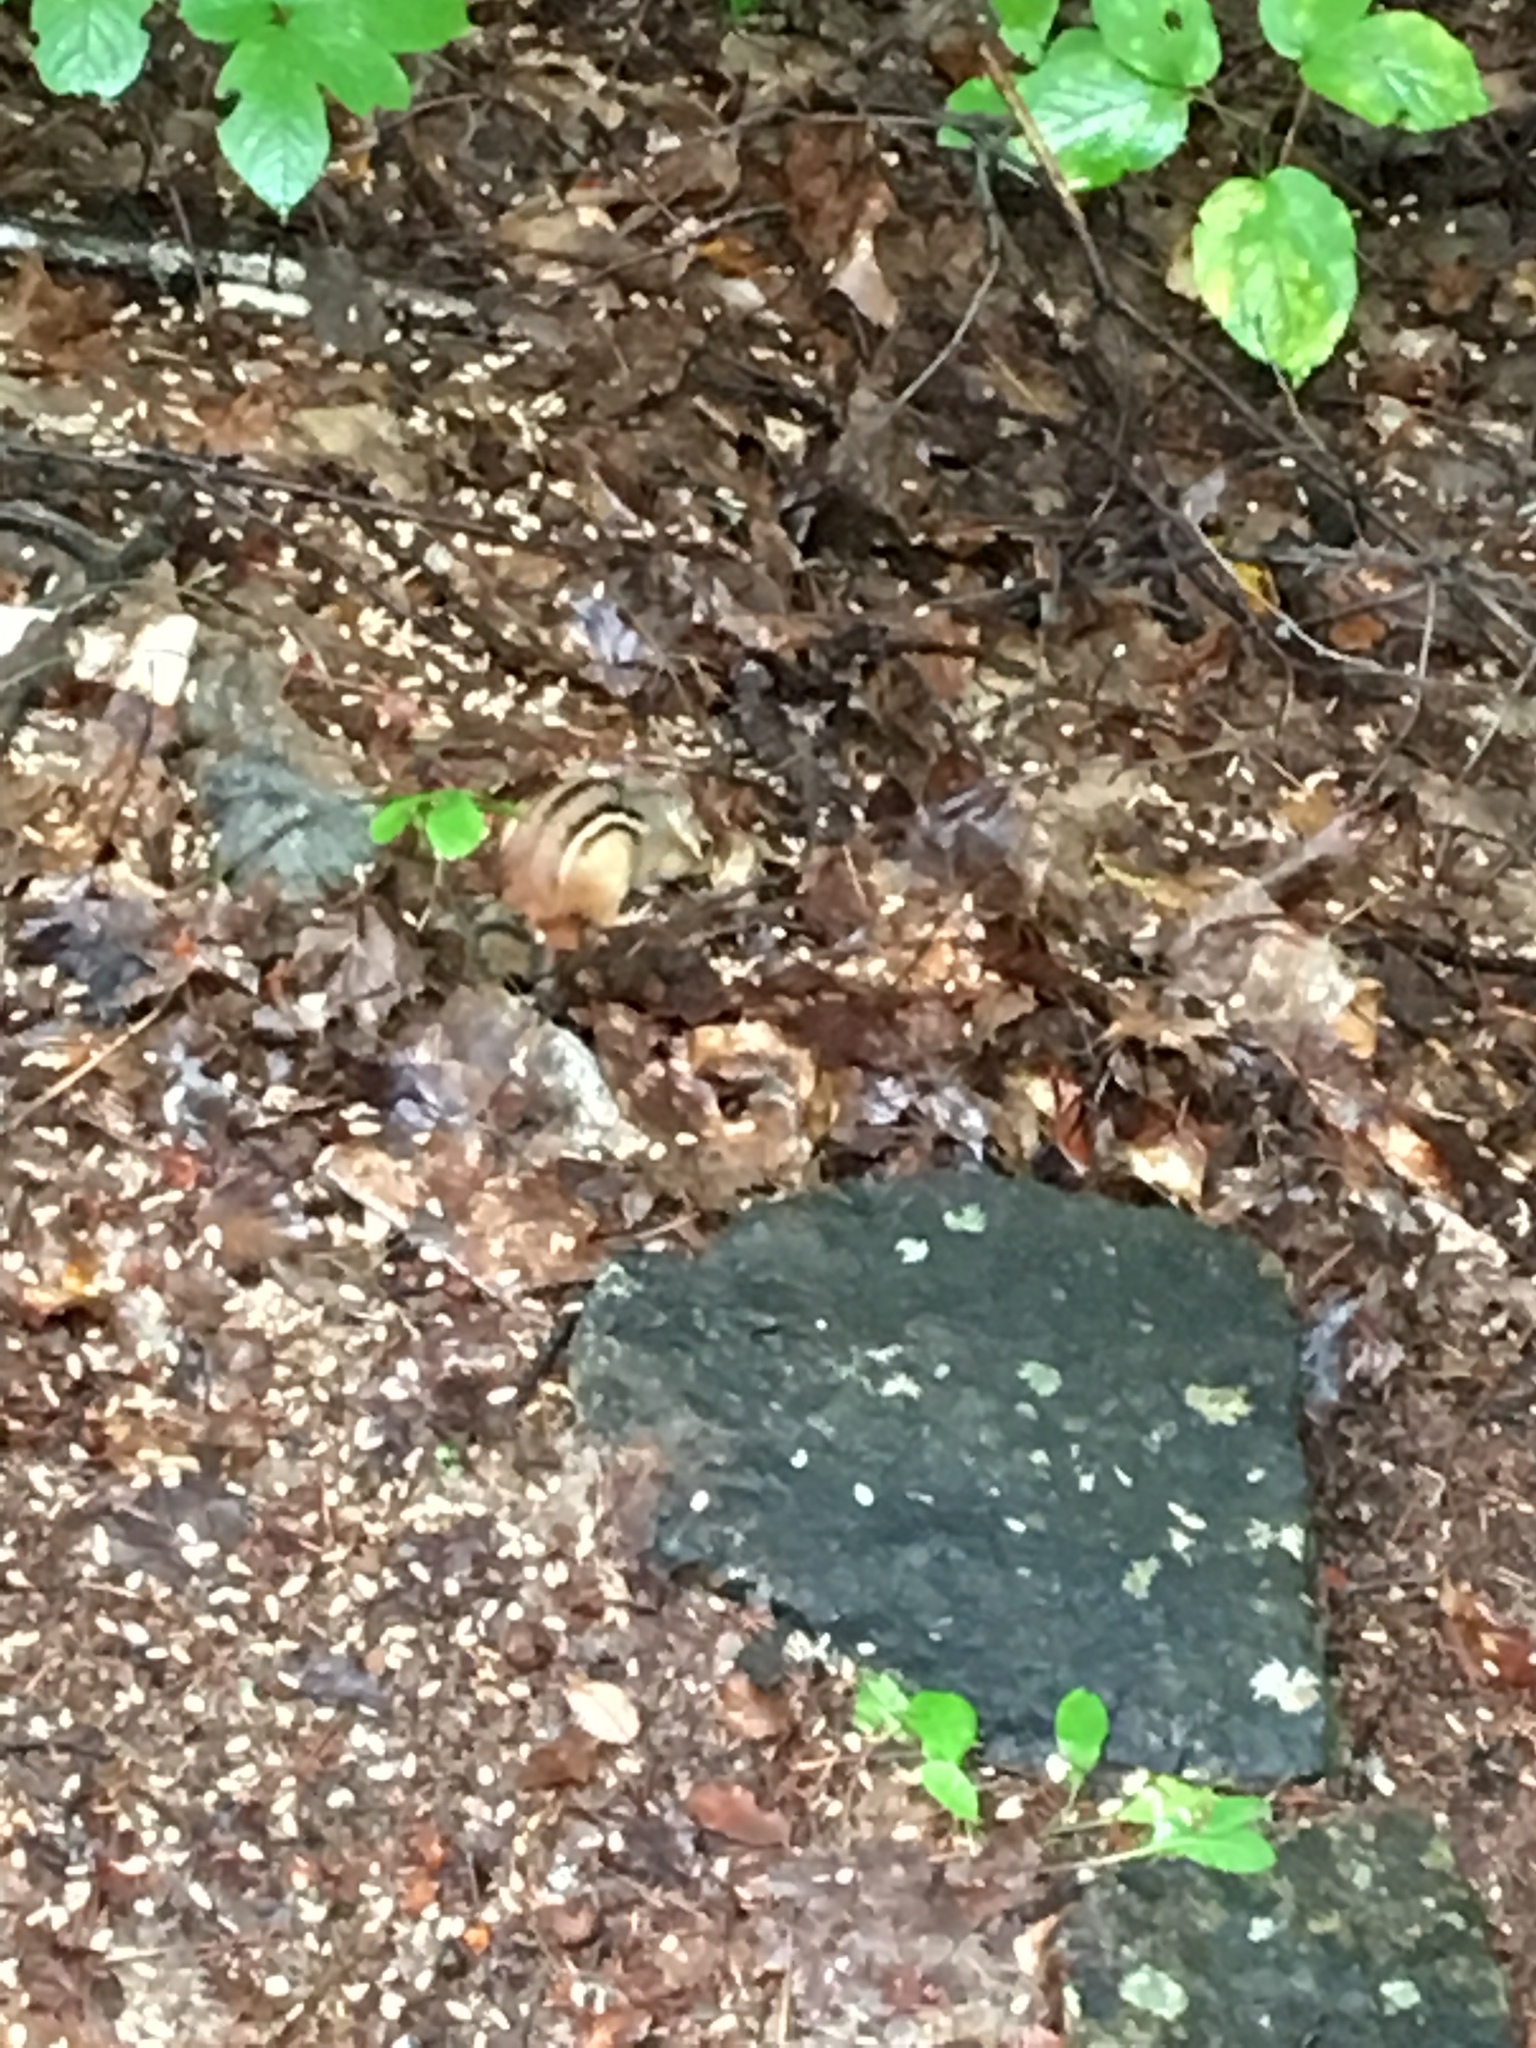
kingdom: Animalia
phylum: Chordata
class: Mammalia
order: Rodentia
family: Sciuridae
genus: Tamias
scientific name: Tamias striatus
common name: Eastern chipmunk
